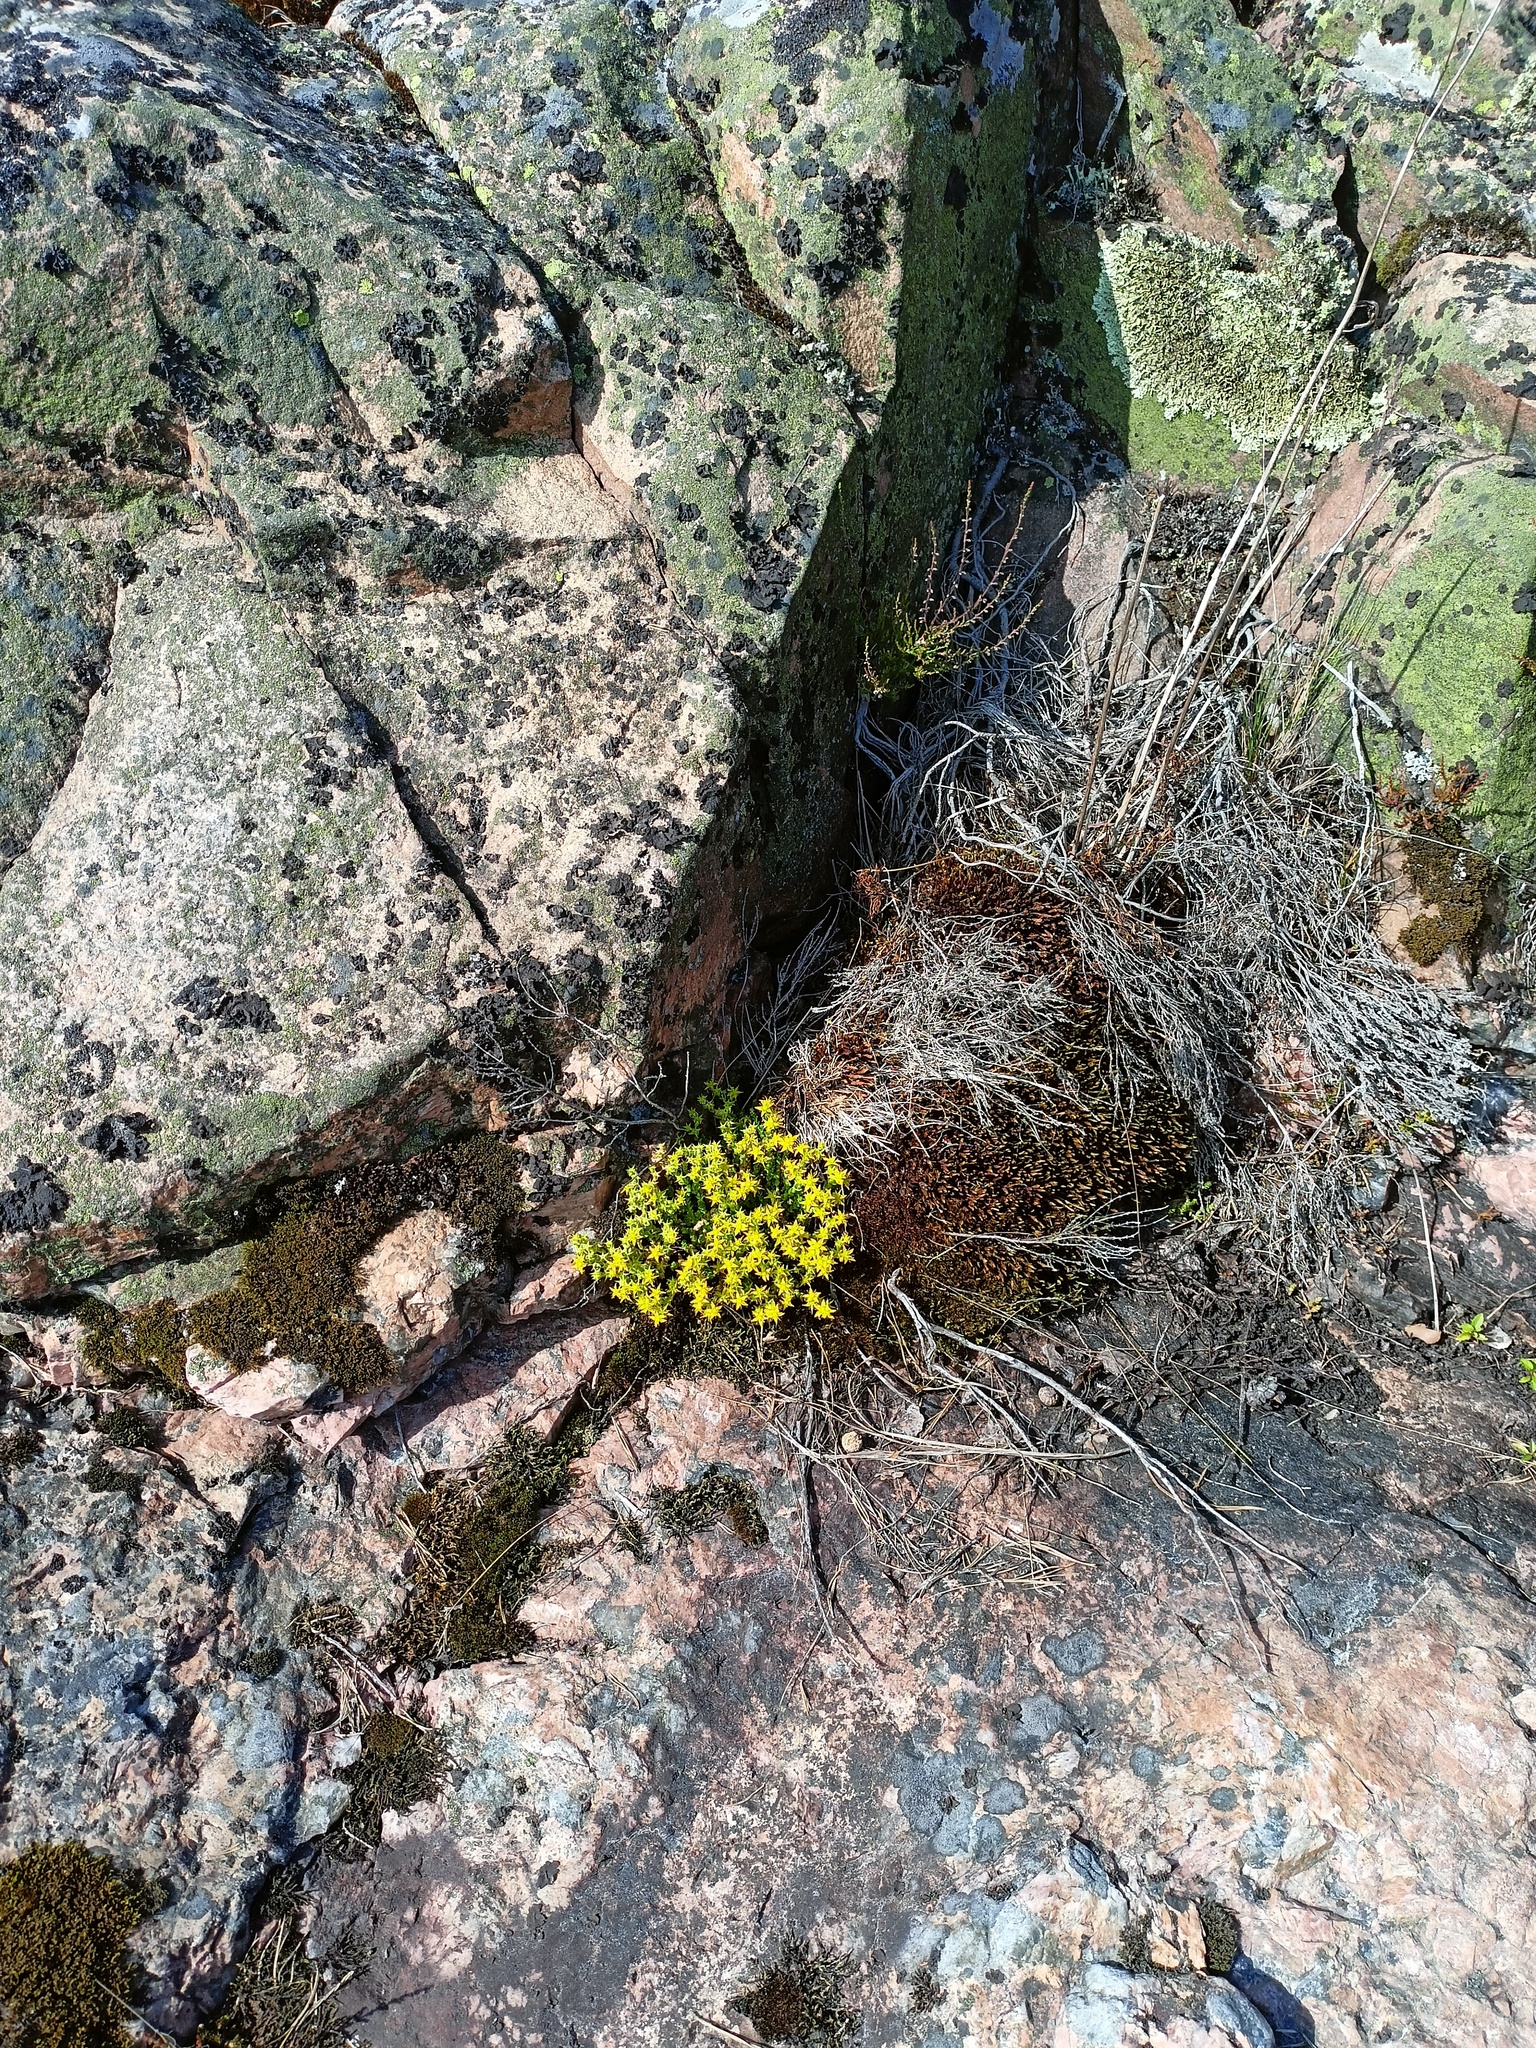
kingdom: Plantae
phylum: Tracheophyta
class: Magnoliopsida
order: Saxifragales
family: Crassulaceae
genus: Sedum
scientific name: Sedum acre
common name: Biting stonecrop
